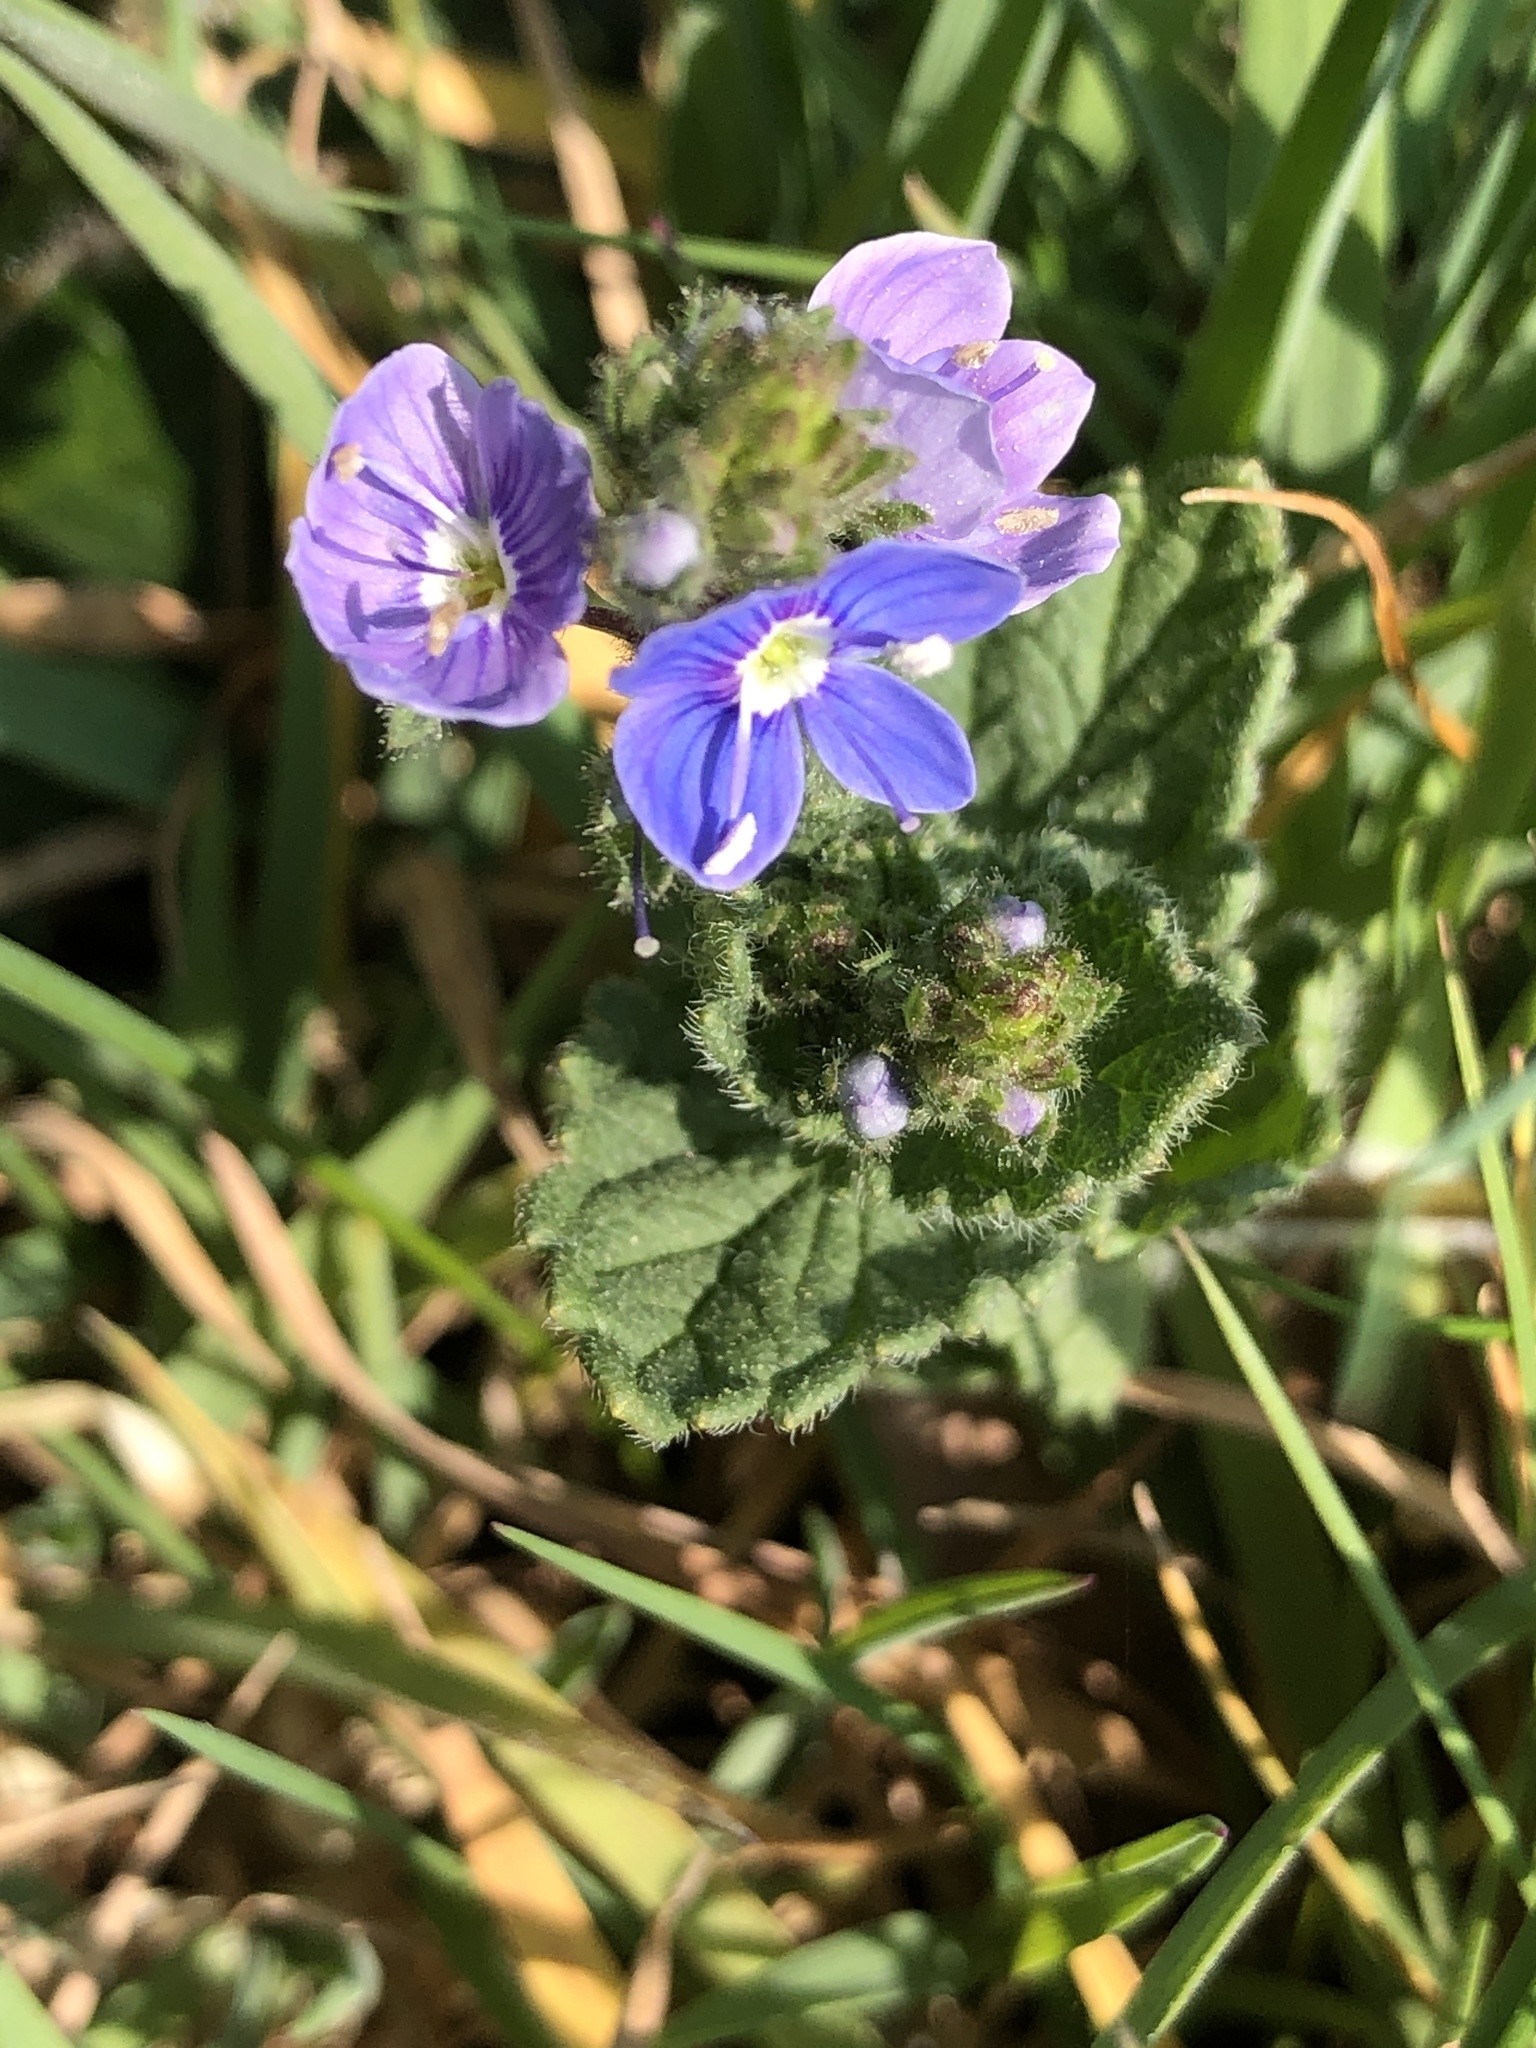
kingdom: Plantae
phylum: Tracheophyta
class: Magnoliopsida
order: Lamiales
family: Plantaginaceae
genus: Veronica
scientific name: Veronica chamaedrys
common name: Germander speedwell
